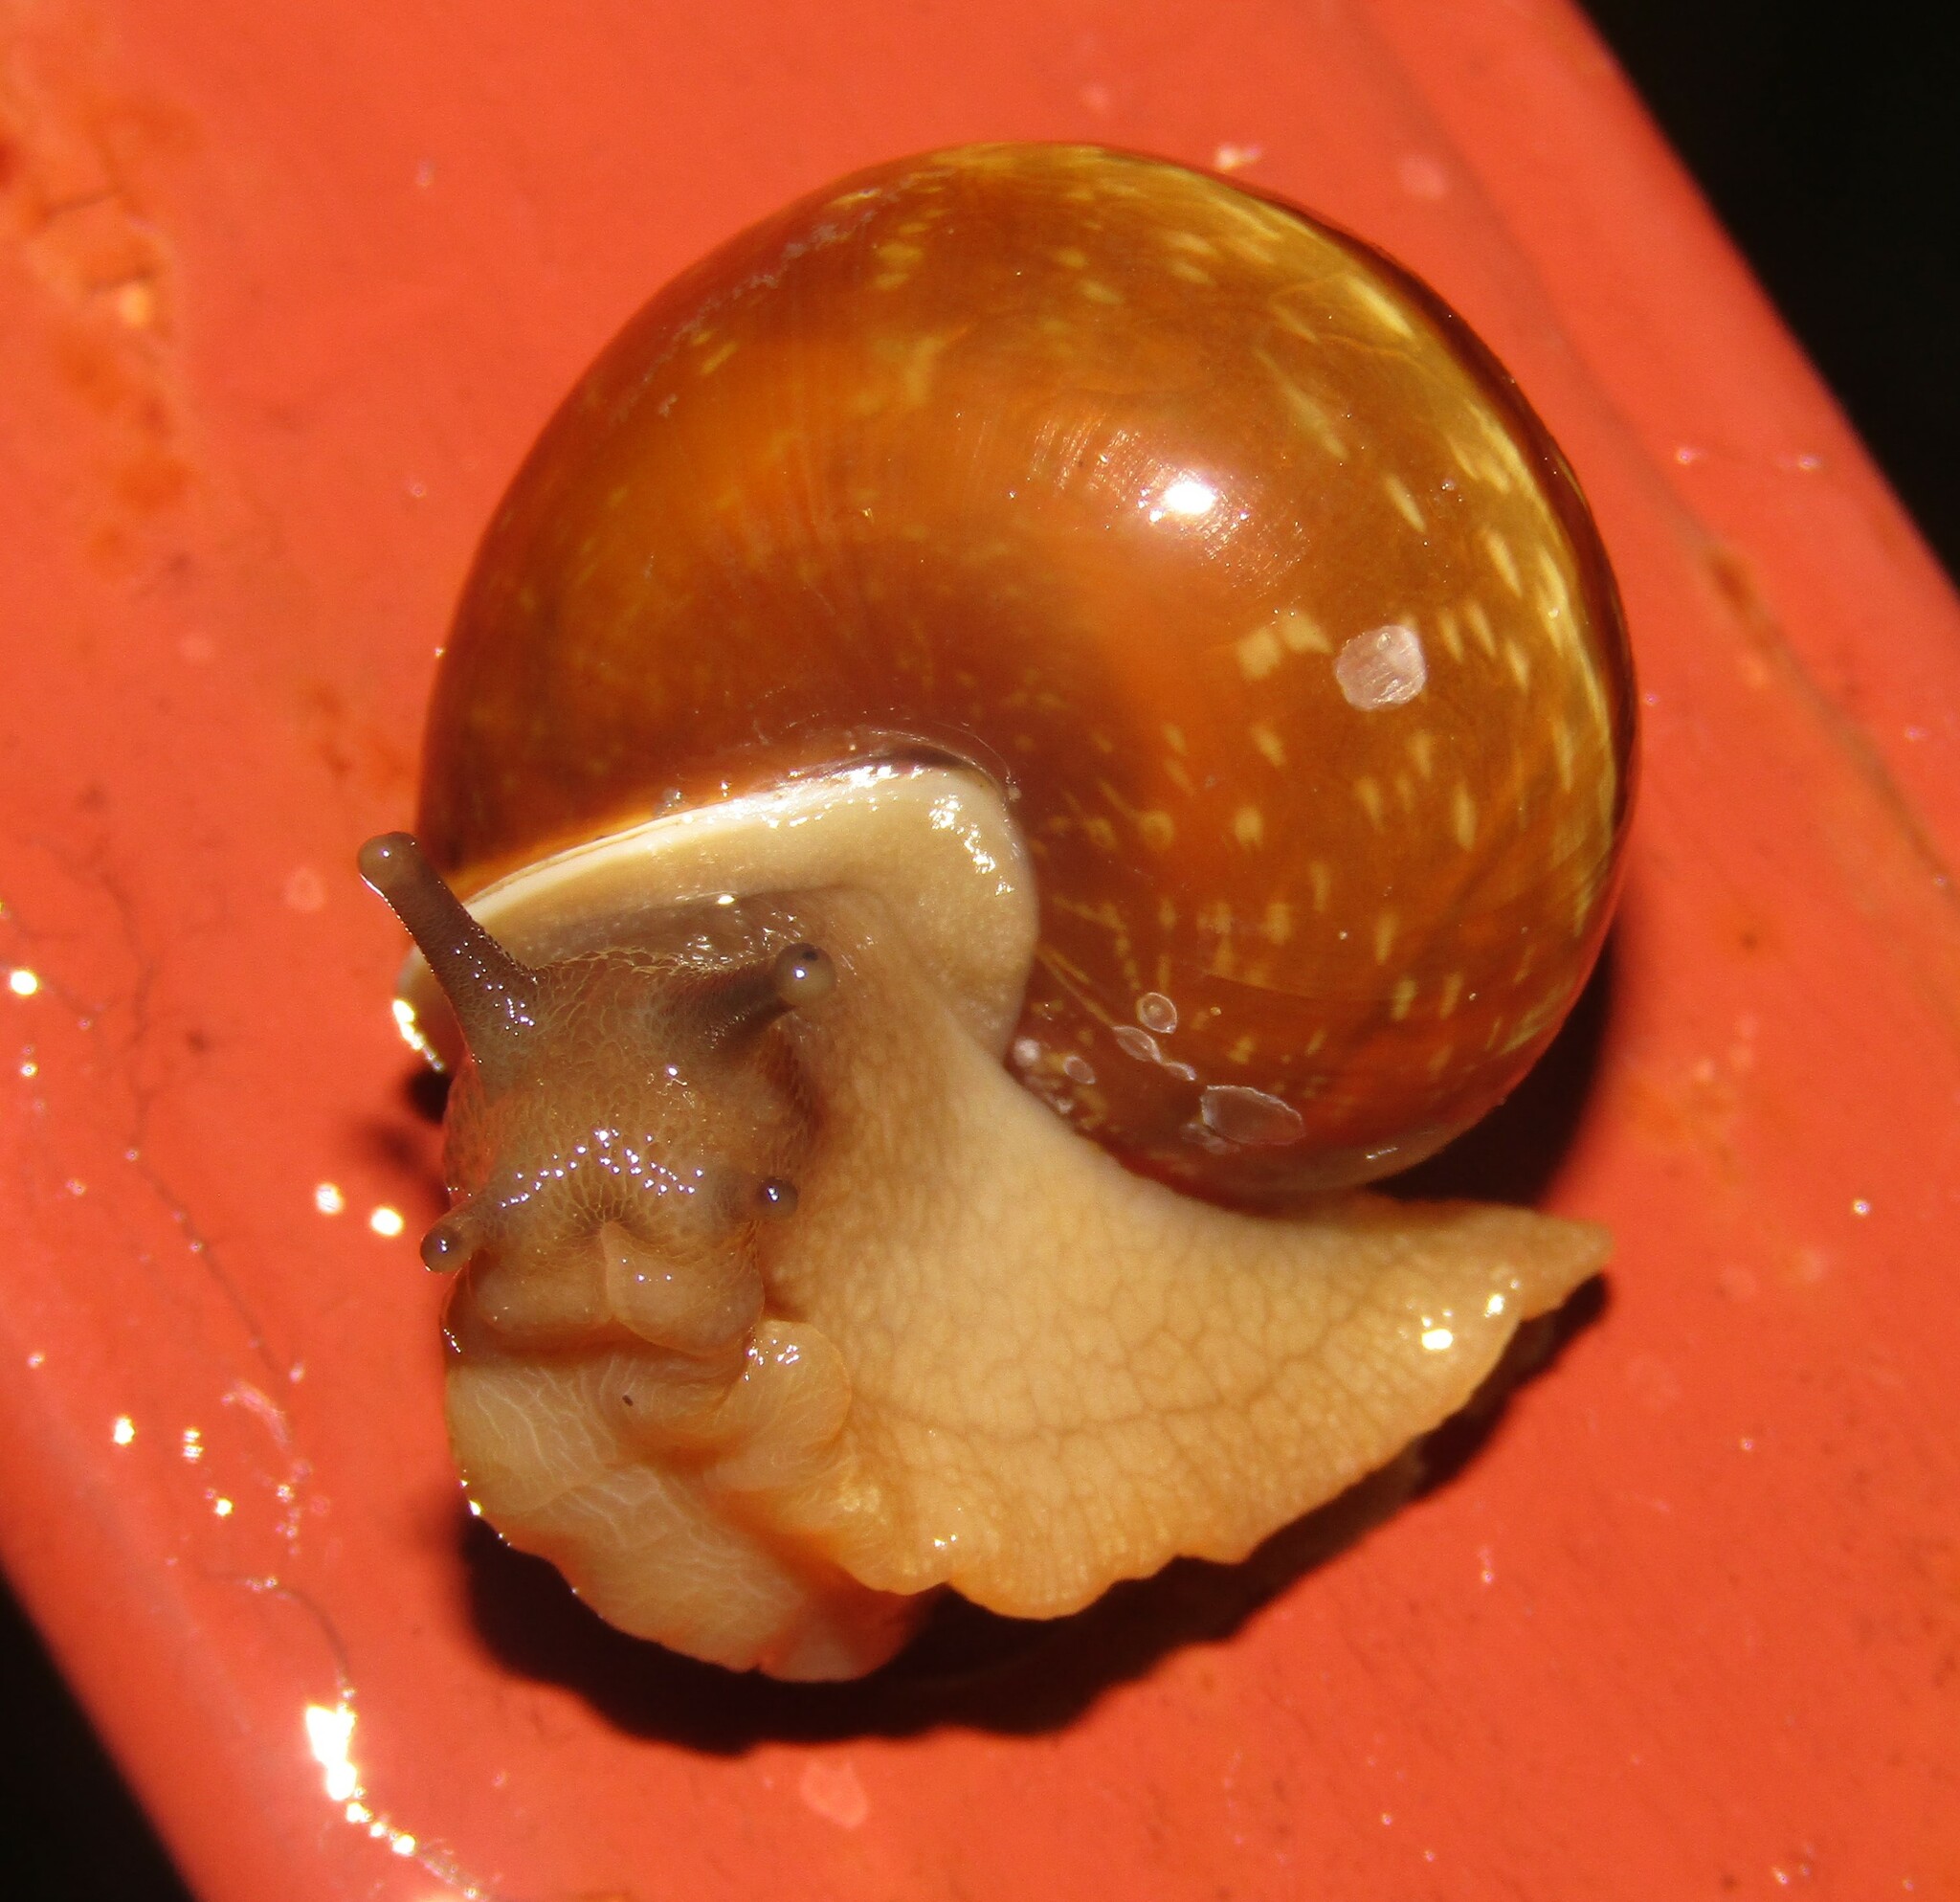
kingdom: Animalia
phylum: Mollusca
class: Gastropoda
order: Stylommatophora
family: Helicidae
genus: Arianta
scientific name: Arianta arbustorum
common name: Copse snail
